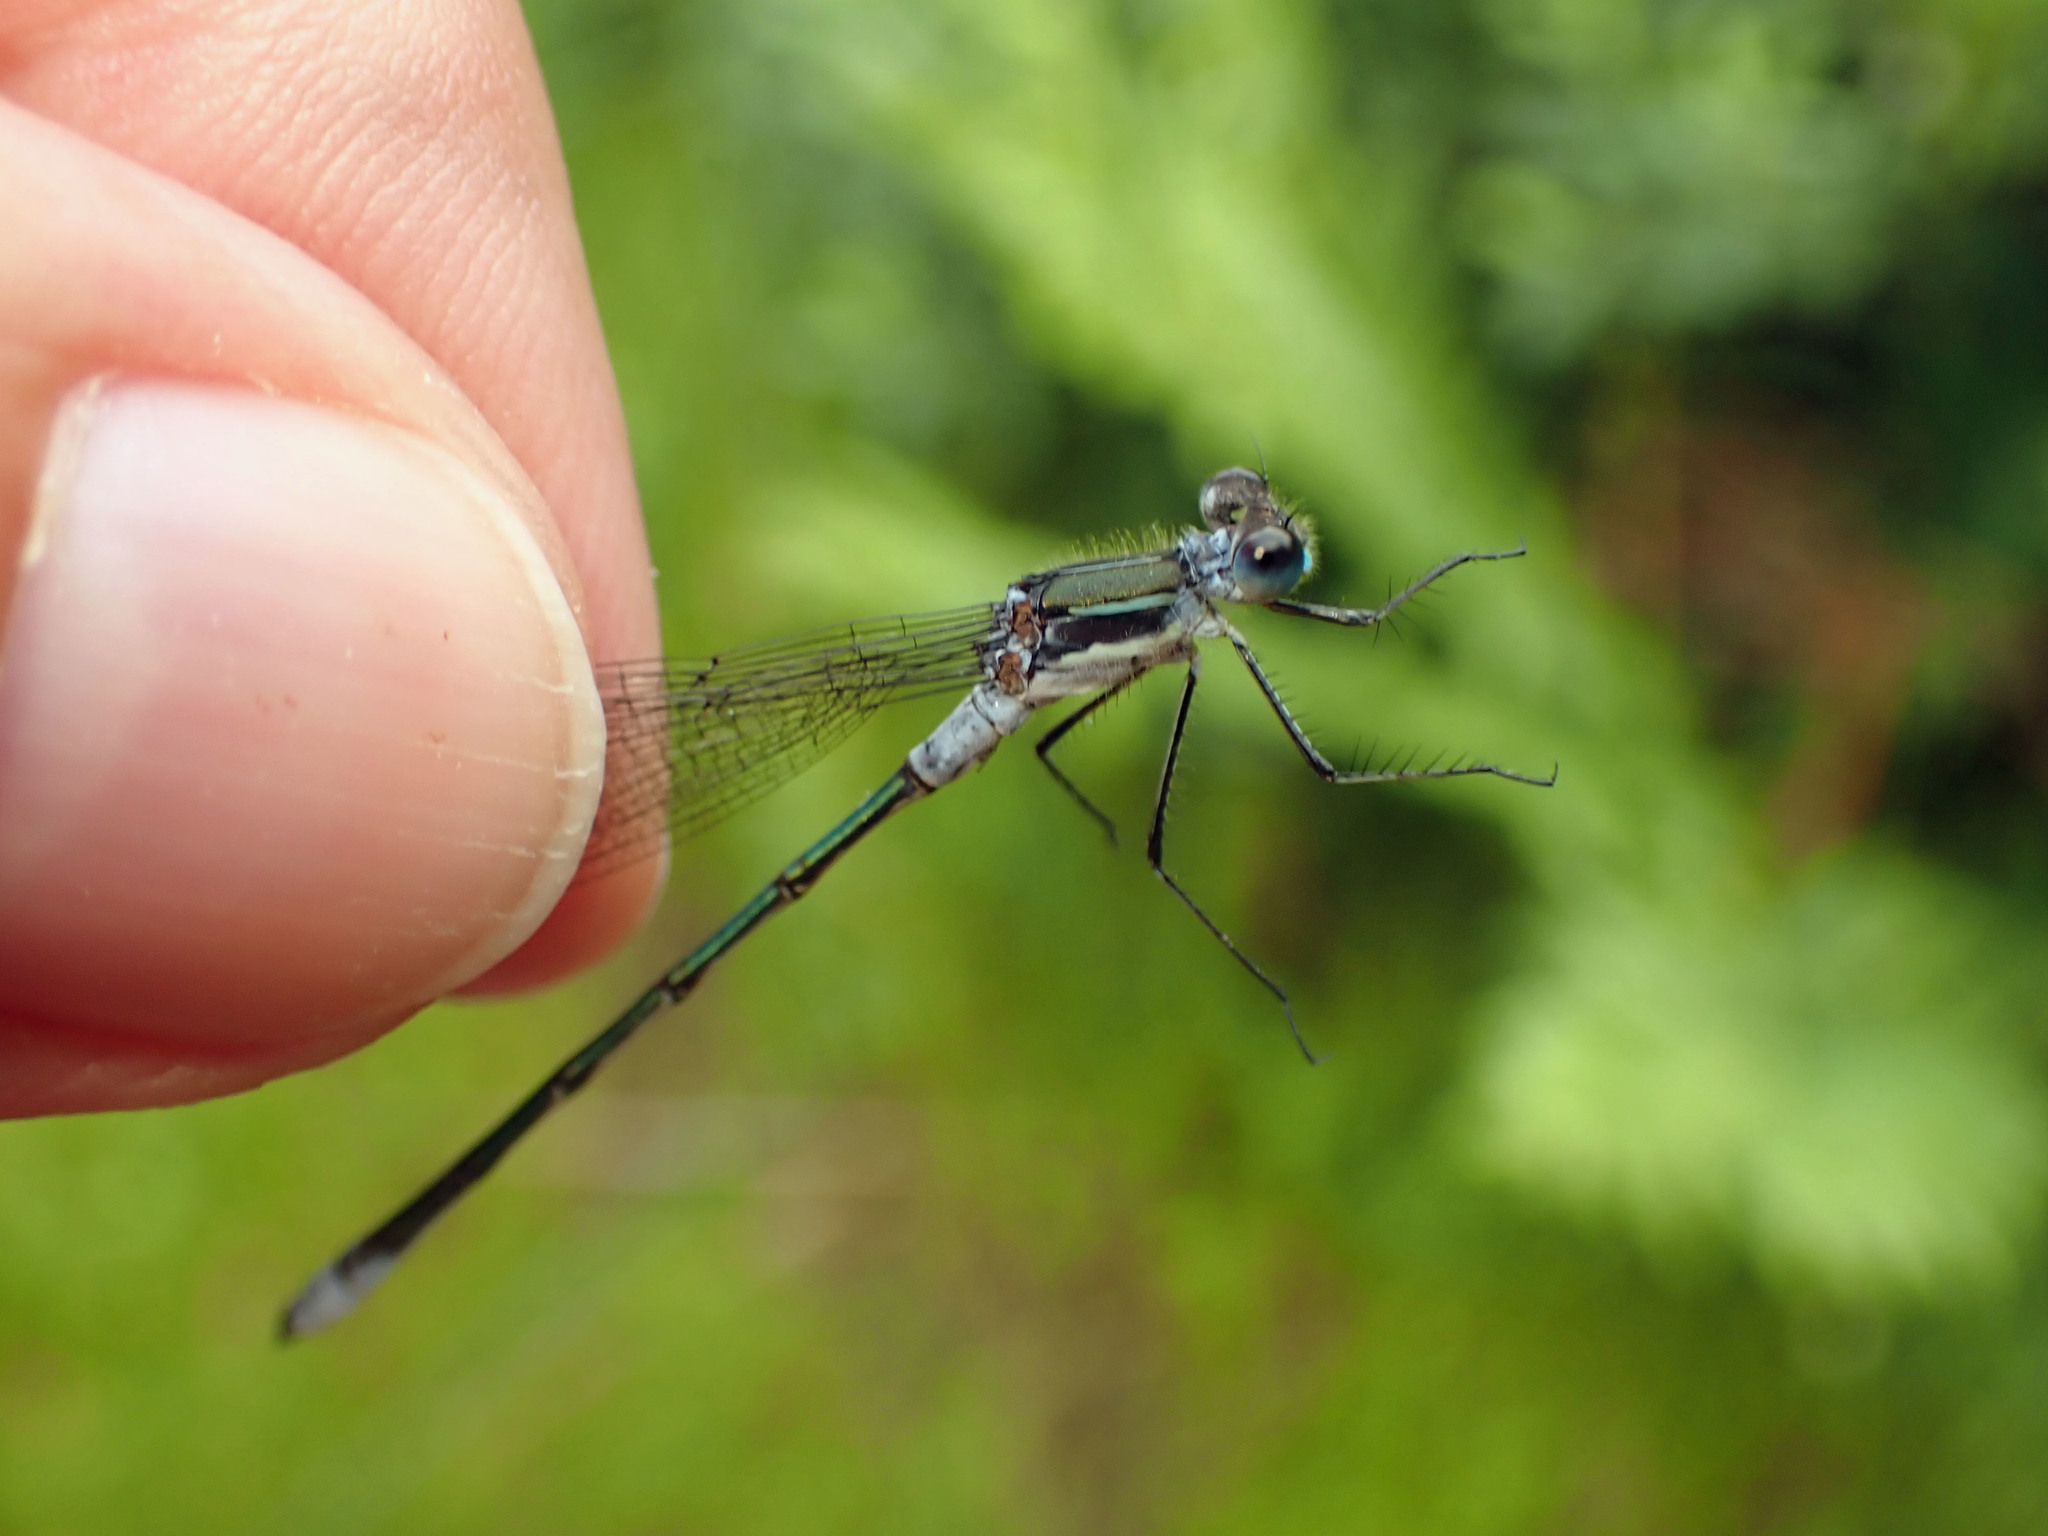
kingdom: Animalia
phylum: Arthropoda
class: Insecta
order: Odonata
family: Lestidae
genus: Lestes
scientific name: Lestes disjunctus
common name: Northern spreadwing
